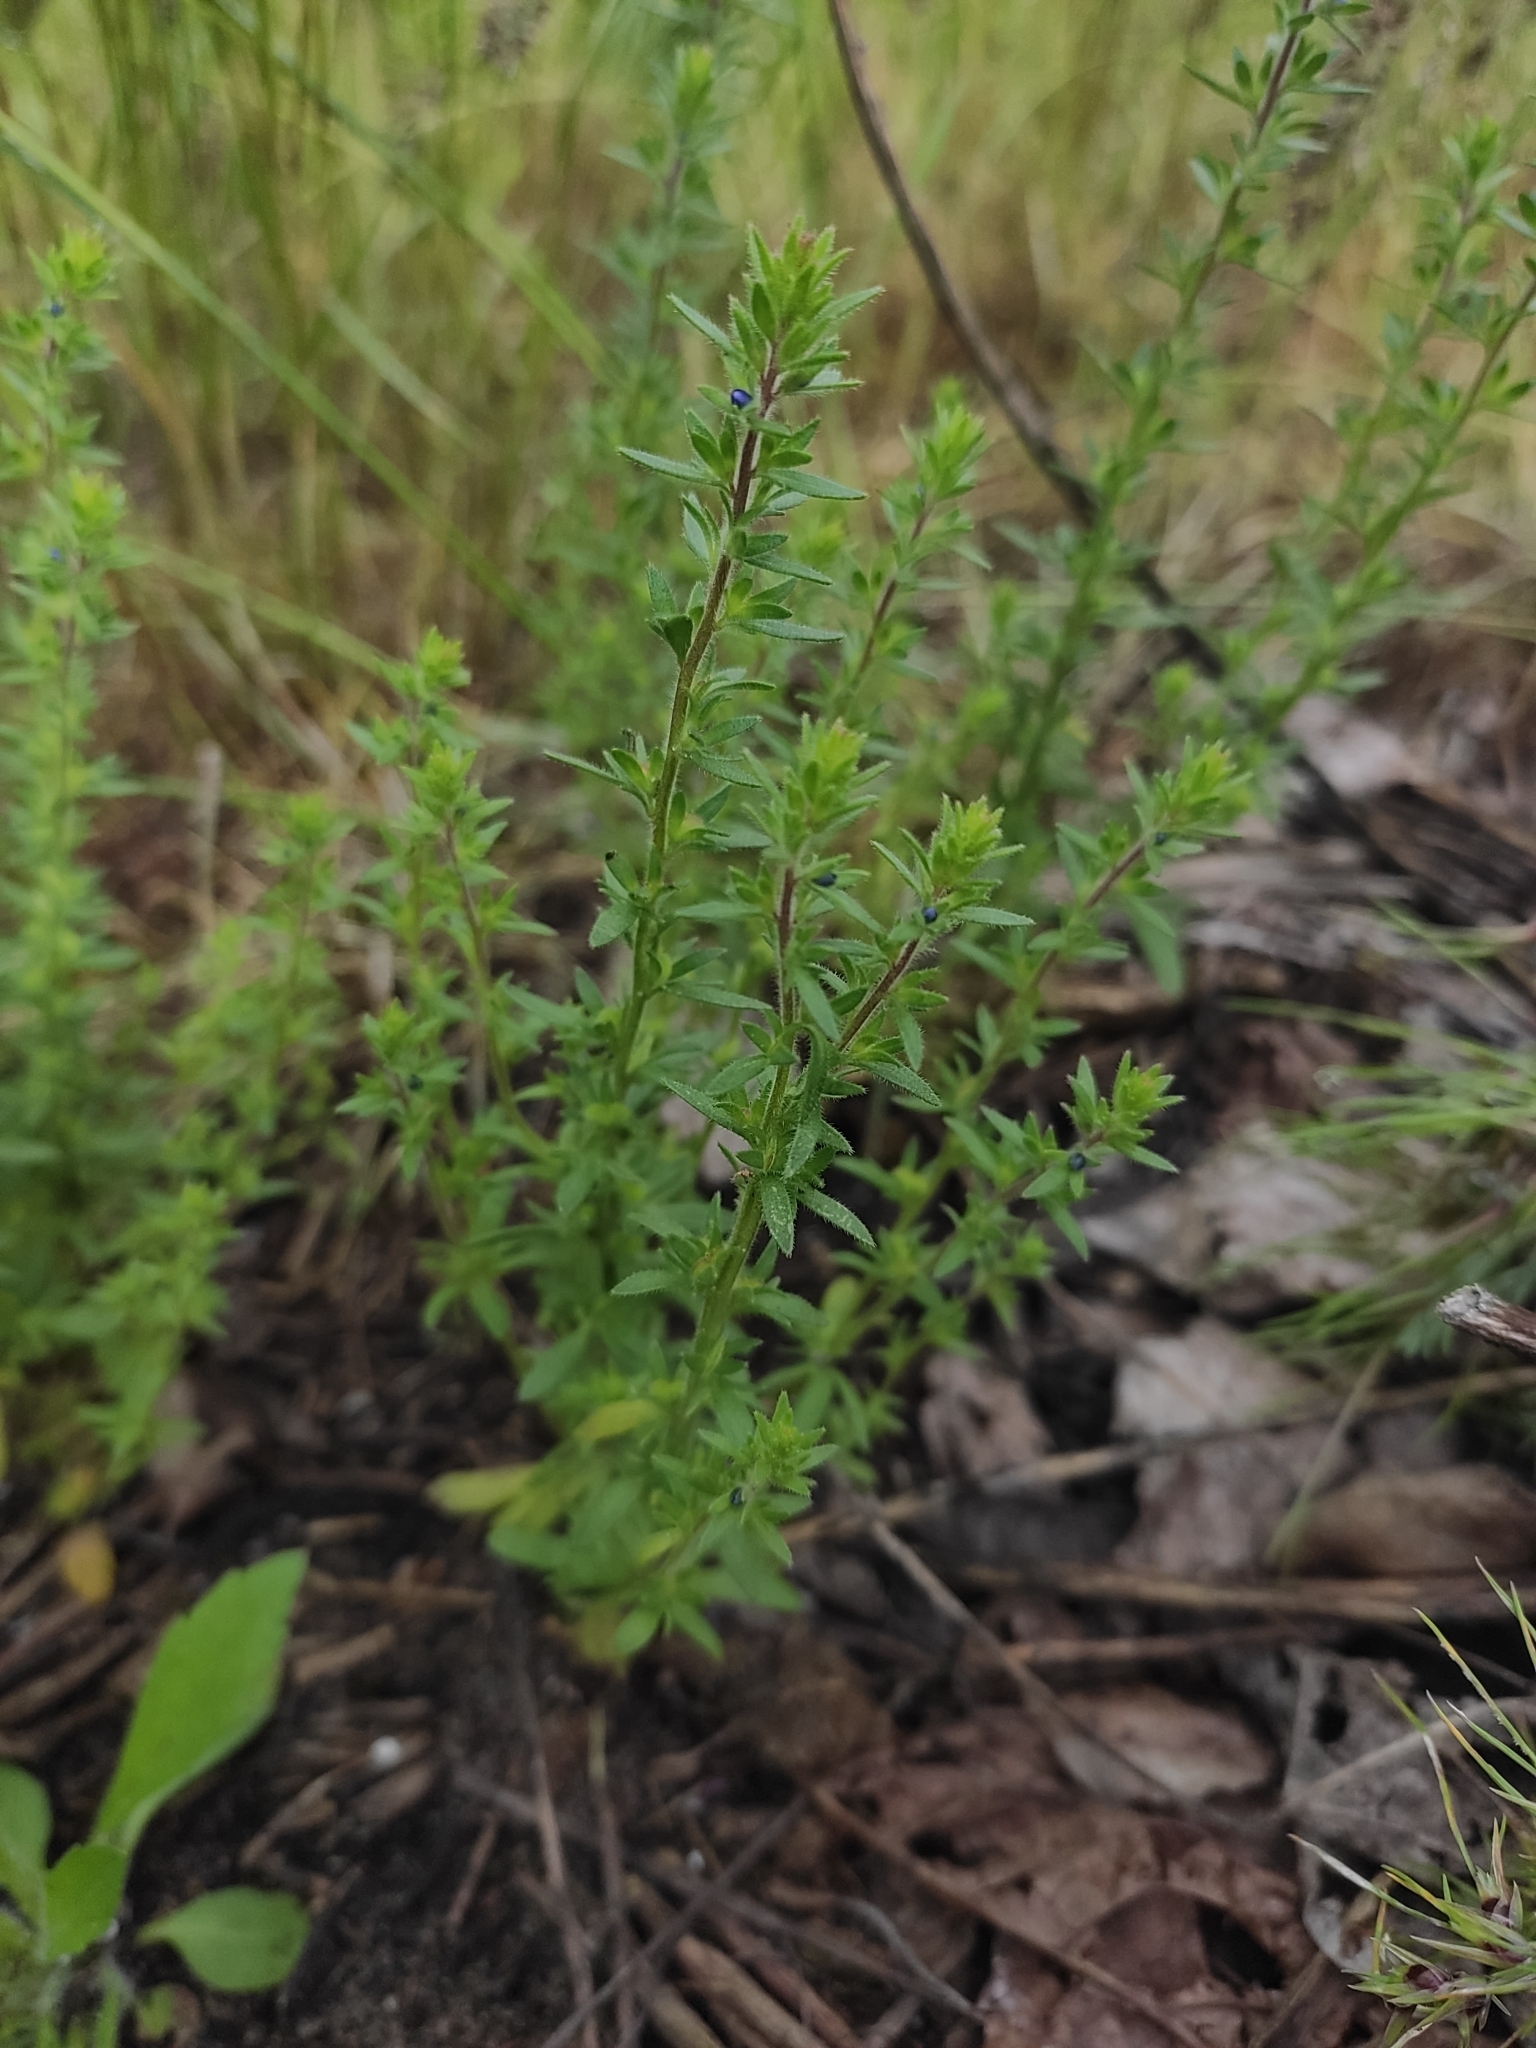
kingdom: Plantae
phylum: Tracheophyta
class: Magnoliopsida
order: Lamiales
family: Plantaginaceae
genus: Veronica
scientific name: Veronica verna
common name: Spring speedwell
